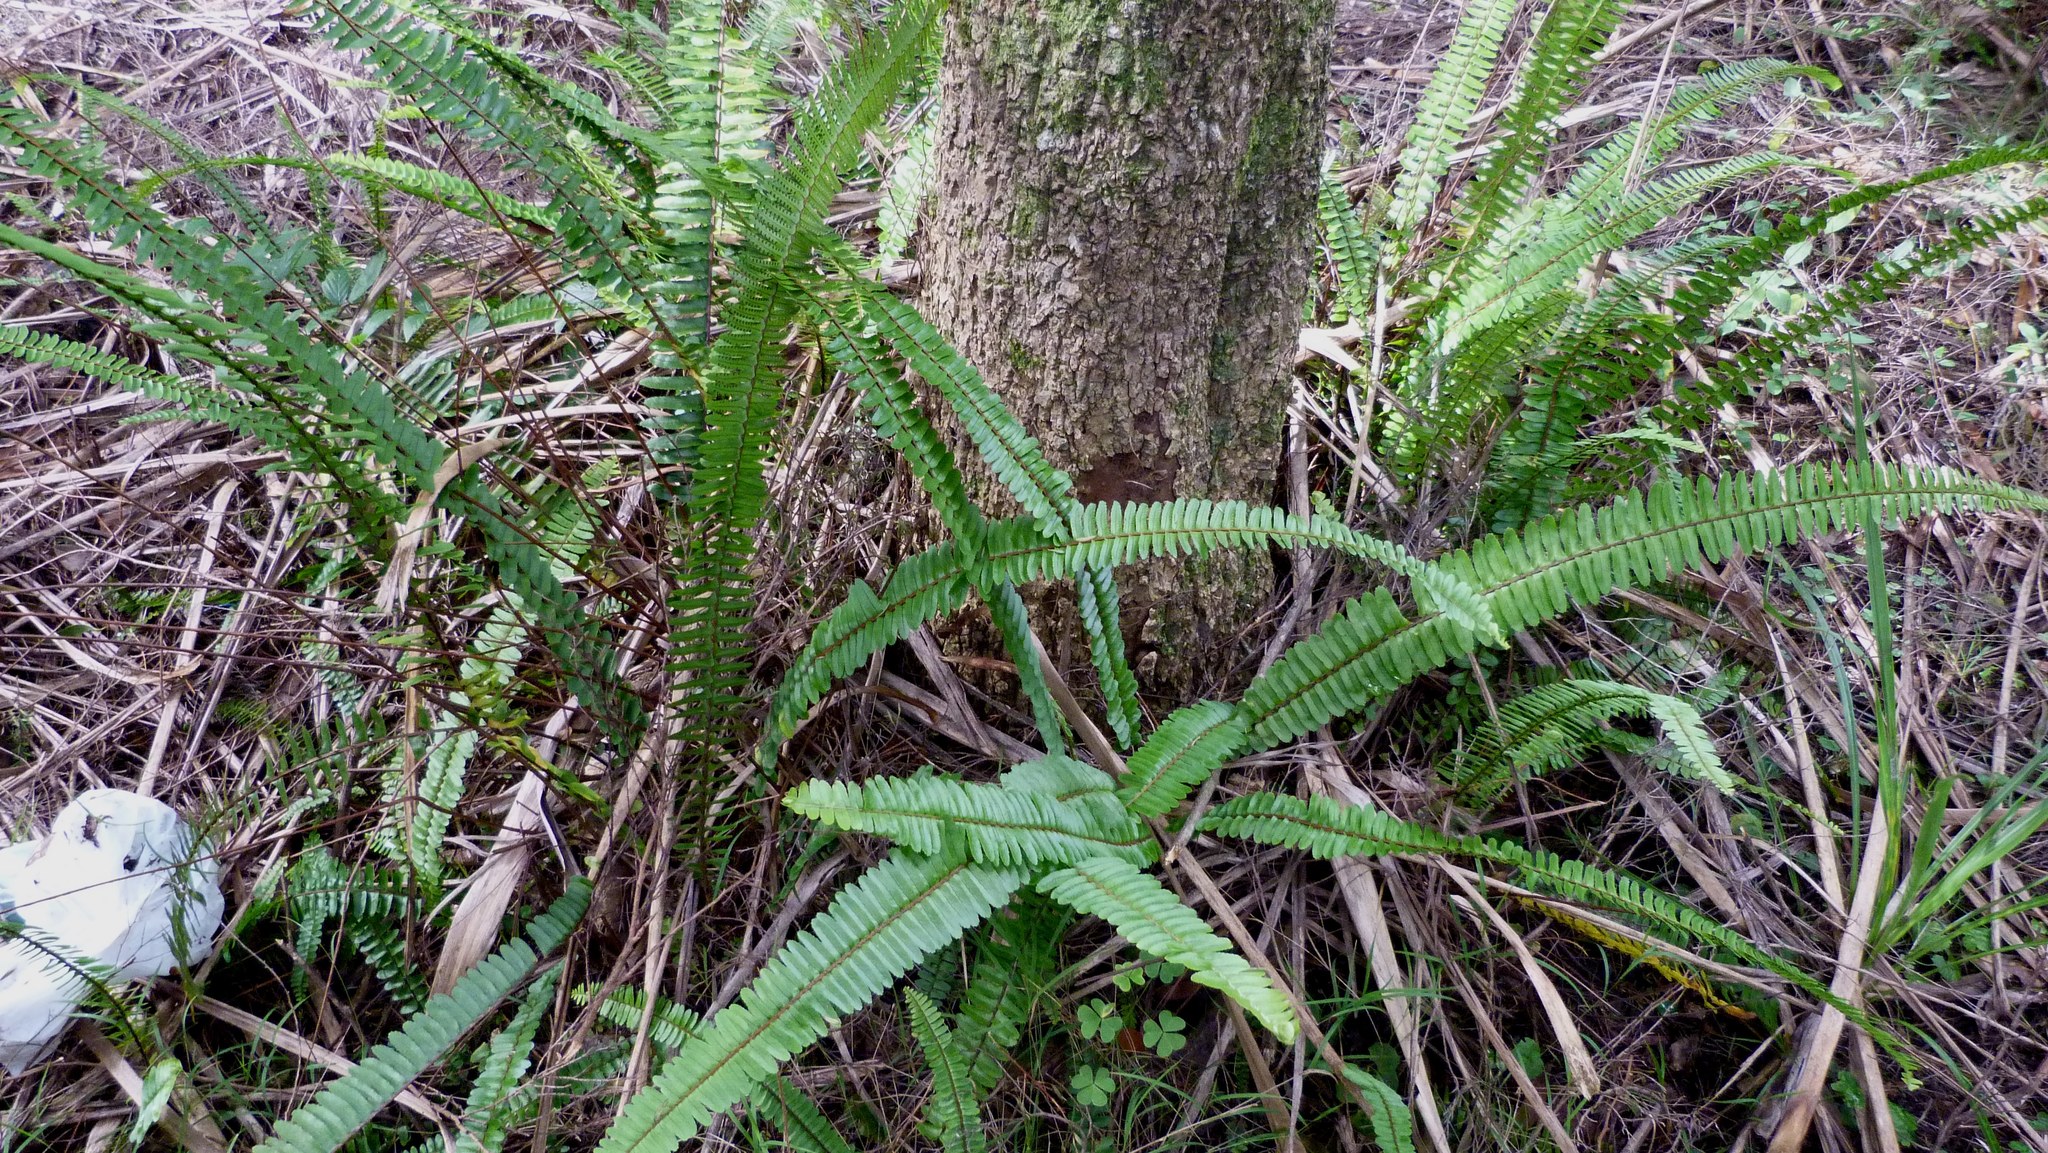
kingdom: Plantae
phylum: Tracheophyta
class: Polypodiopsida
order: Polypodiales
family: Nephrolepidaceae
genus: Nephrolepis
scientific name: Nephrolepis cordifolia
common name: Narrow swordfern
